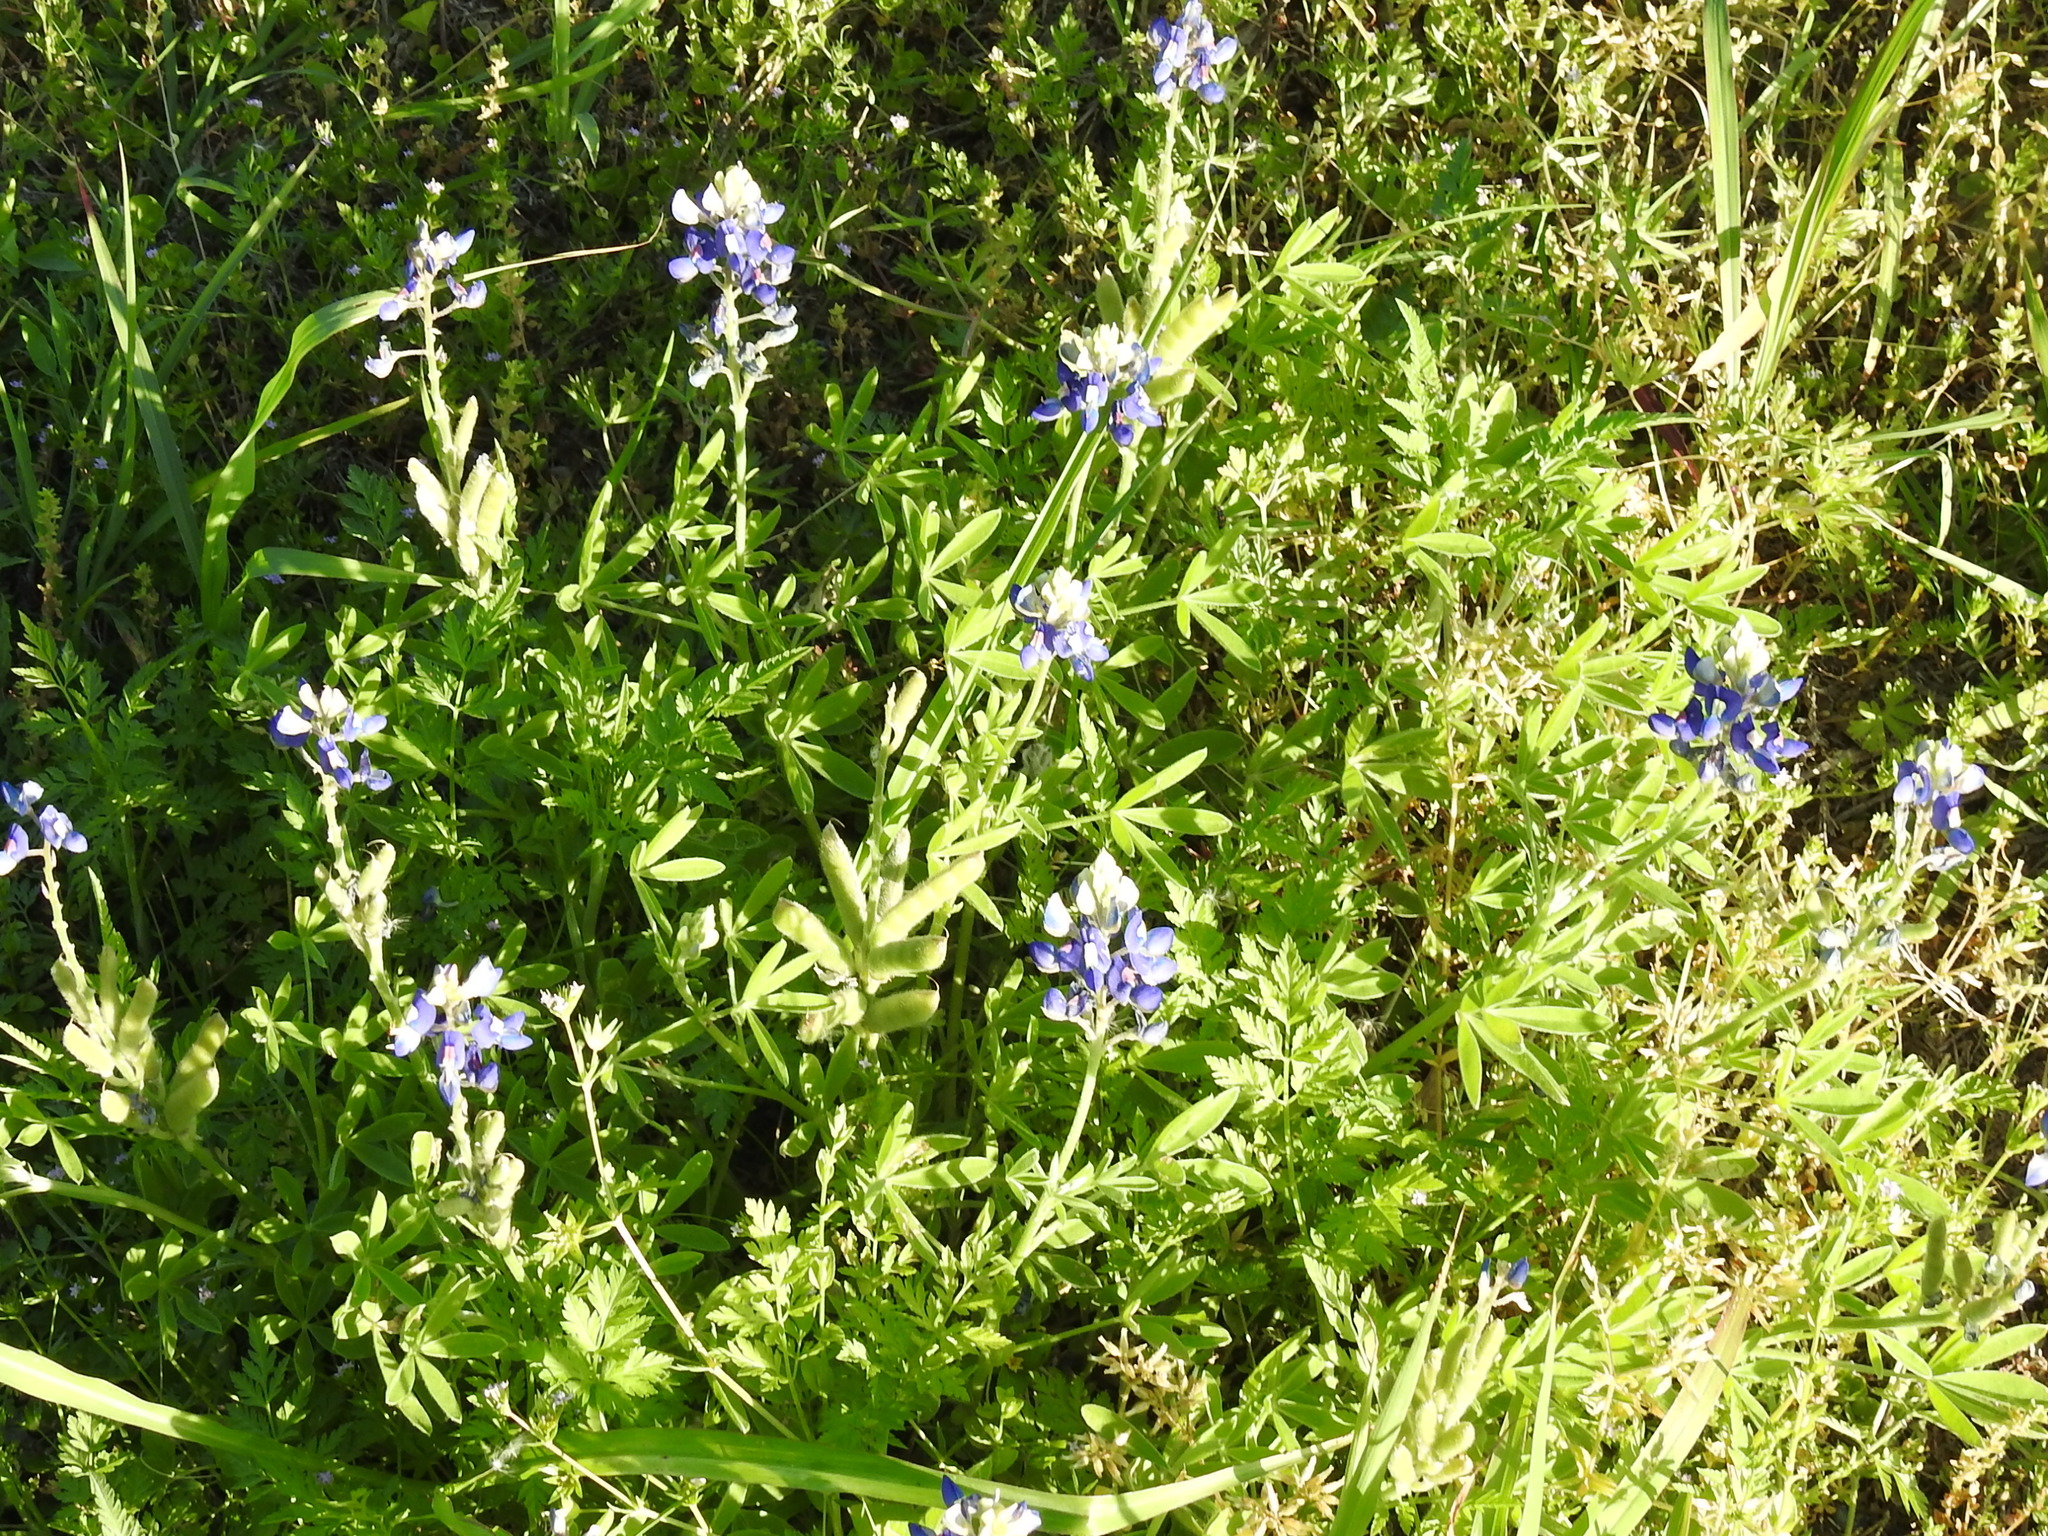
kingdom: Plantae
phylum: Tracheophyta
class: Magnoliopsida
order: Fabales
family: Fabaceae
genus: Lupinus
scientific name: Lupinus texensis
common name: Texas bluebonnet
